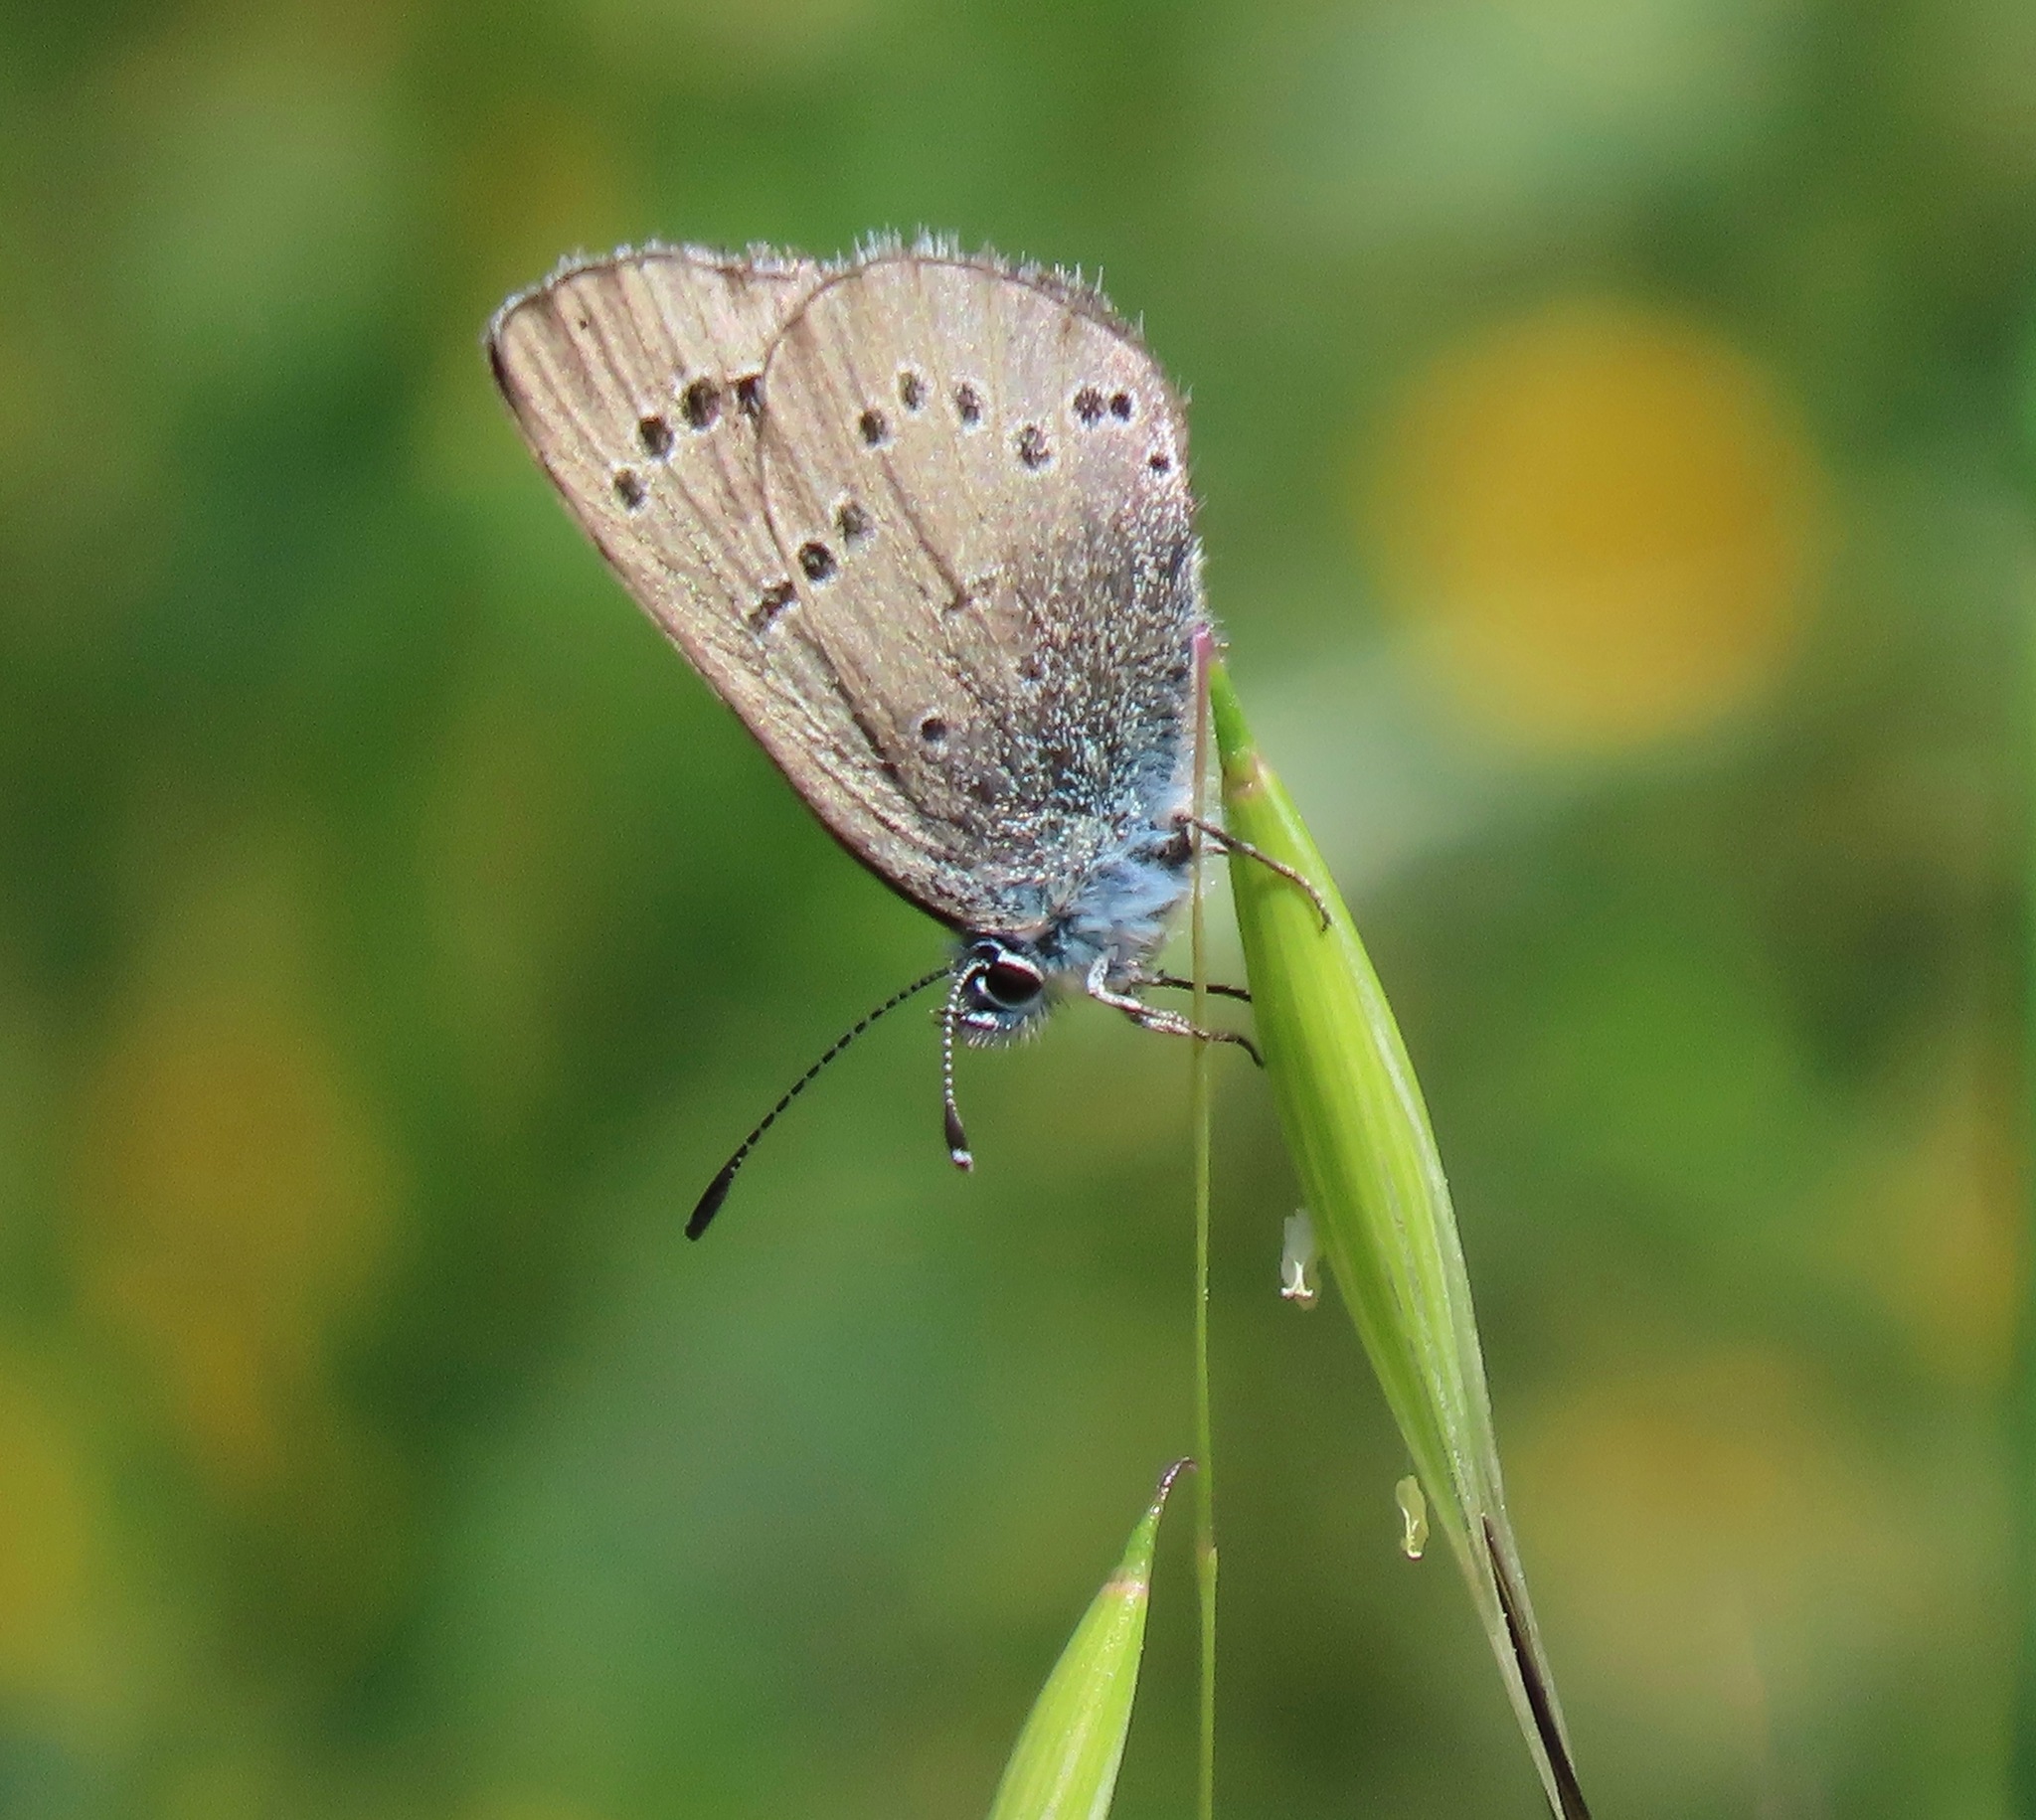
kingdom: Animalia
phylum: Arthropoda
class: Insecta
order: Lepidoptera
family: Lycaenidae
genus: Glaucopsyche
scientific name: Glaucopsyche lygdamus
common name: Silvery blue
